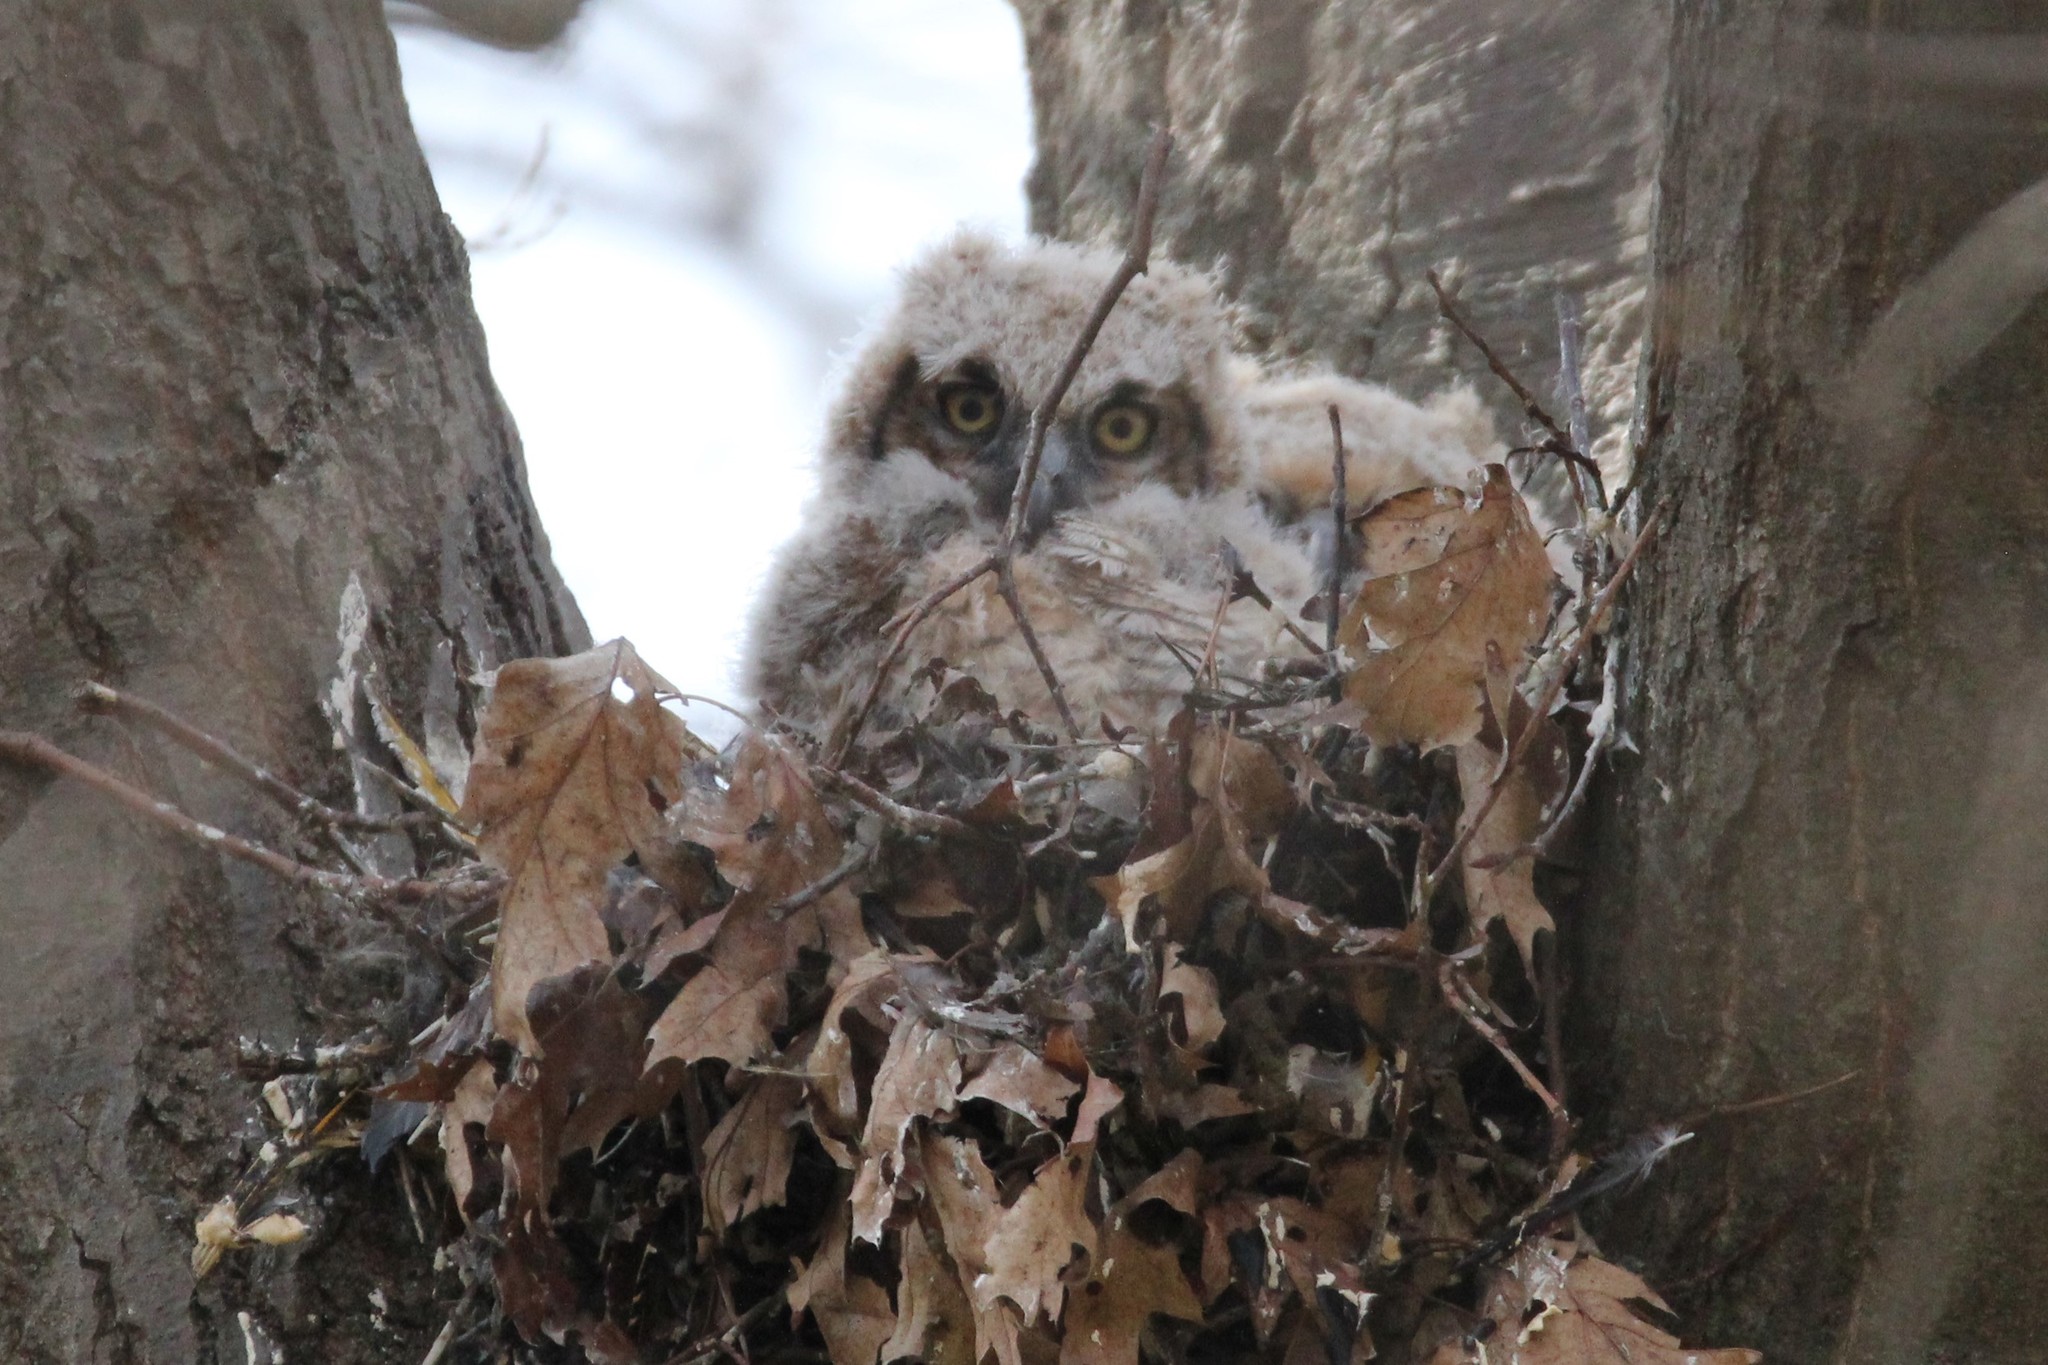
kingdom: Animalia
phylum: Chordata
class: Aves
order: Strigiformes
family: Strigidae
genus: Bubo
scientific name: Bubo virginianus
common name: Great horned owl
